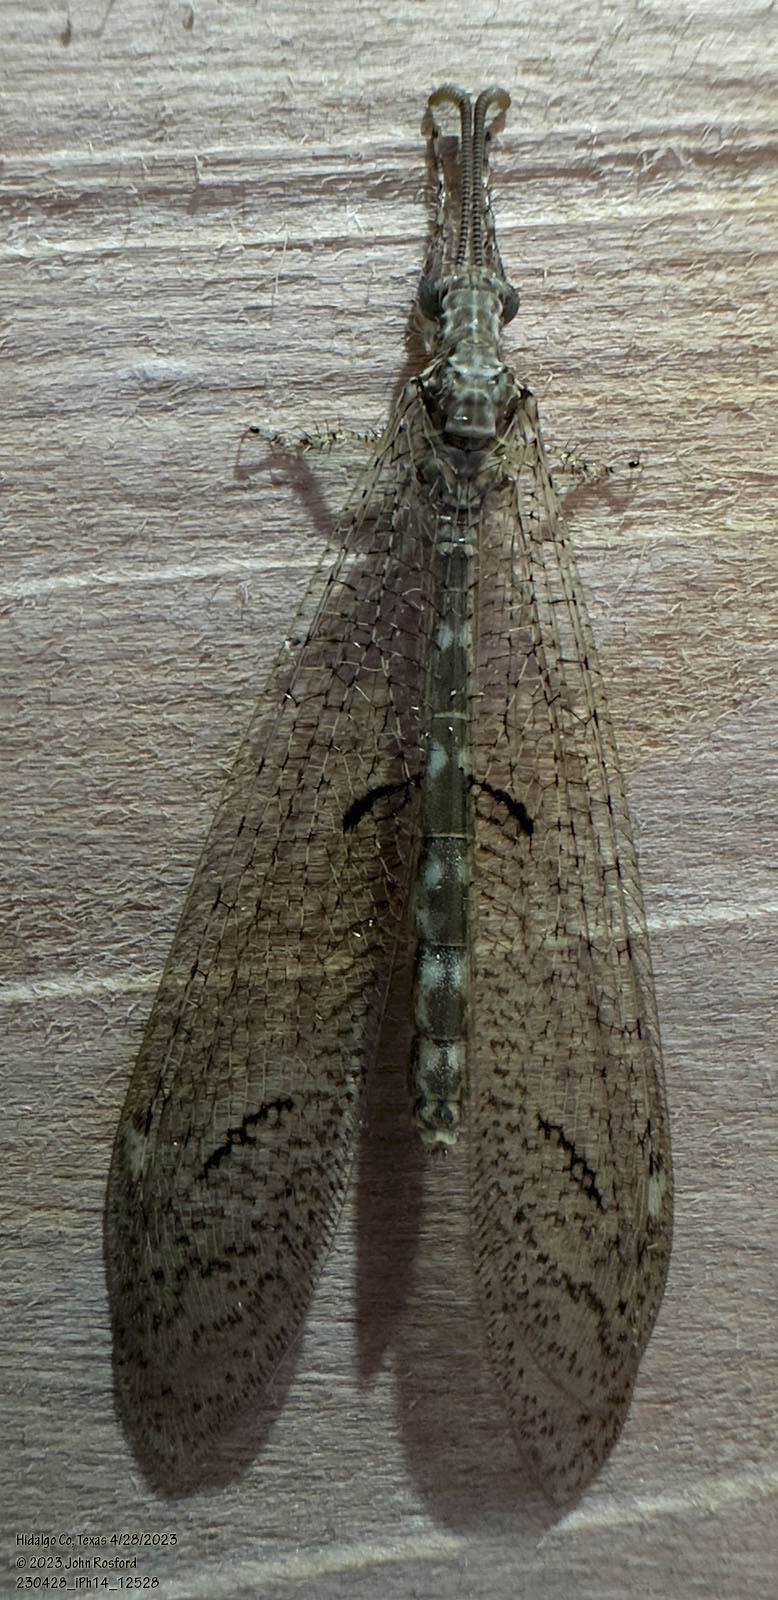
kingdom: Animalia
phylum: Arthropoda
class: Insecta
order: Neuroptera
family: Myrmeleontidae
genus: Euptilon
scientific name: Euptilon ornatum
